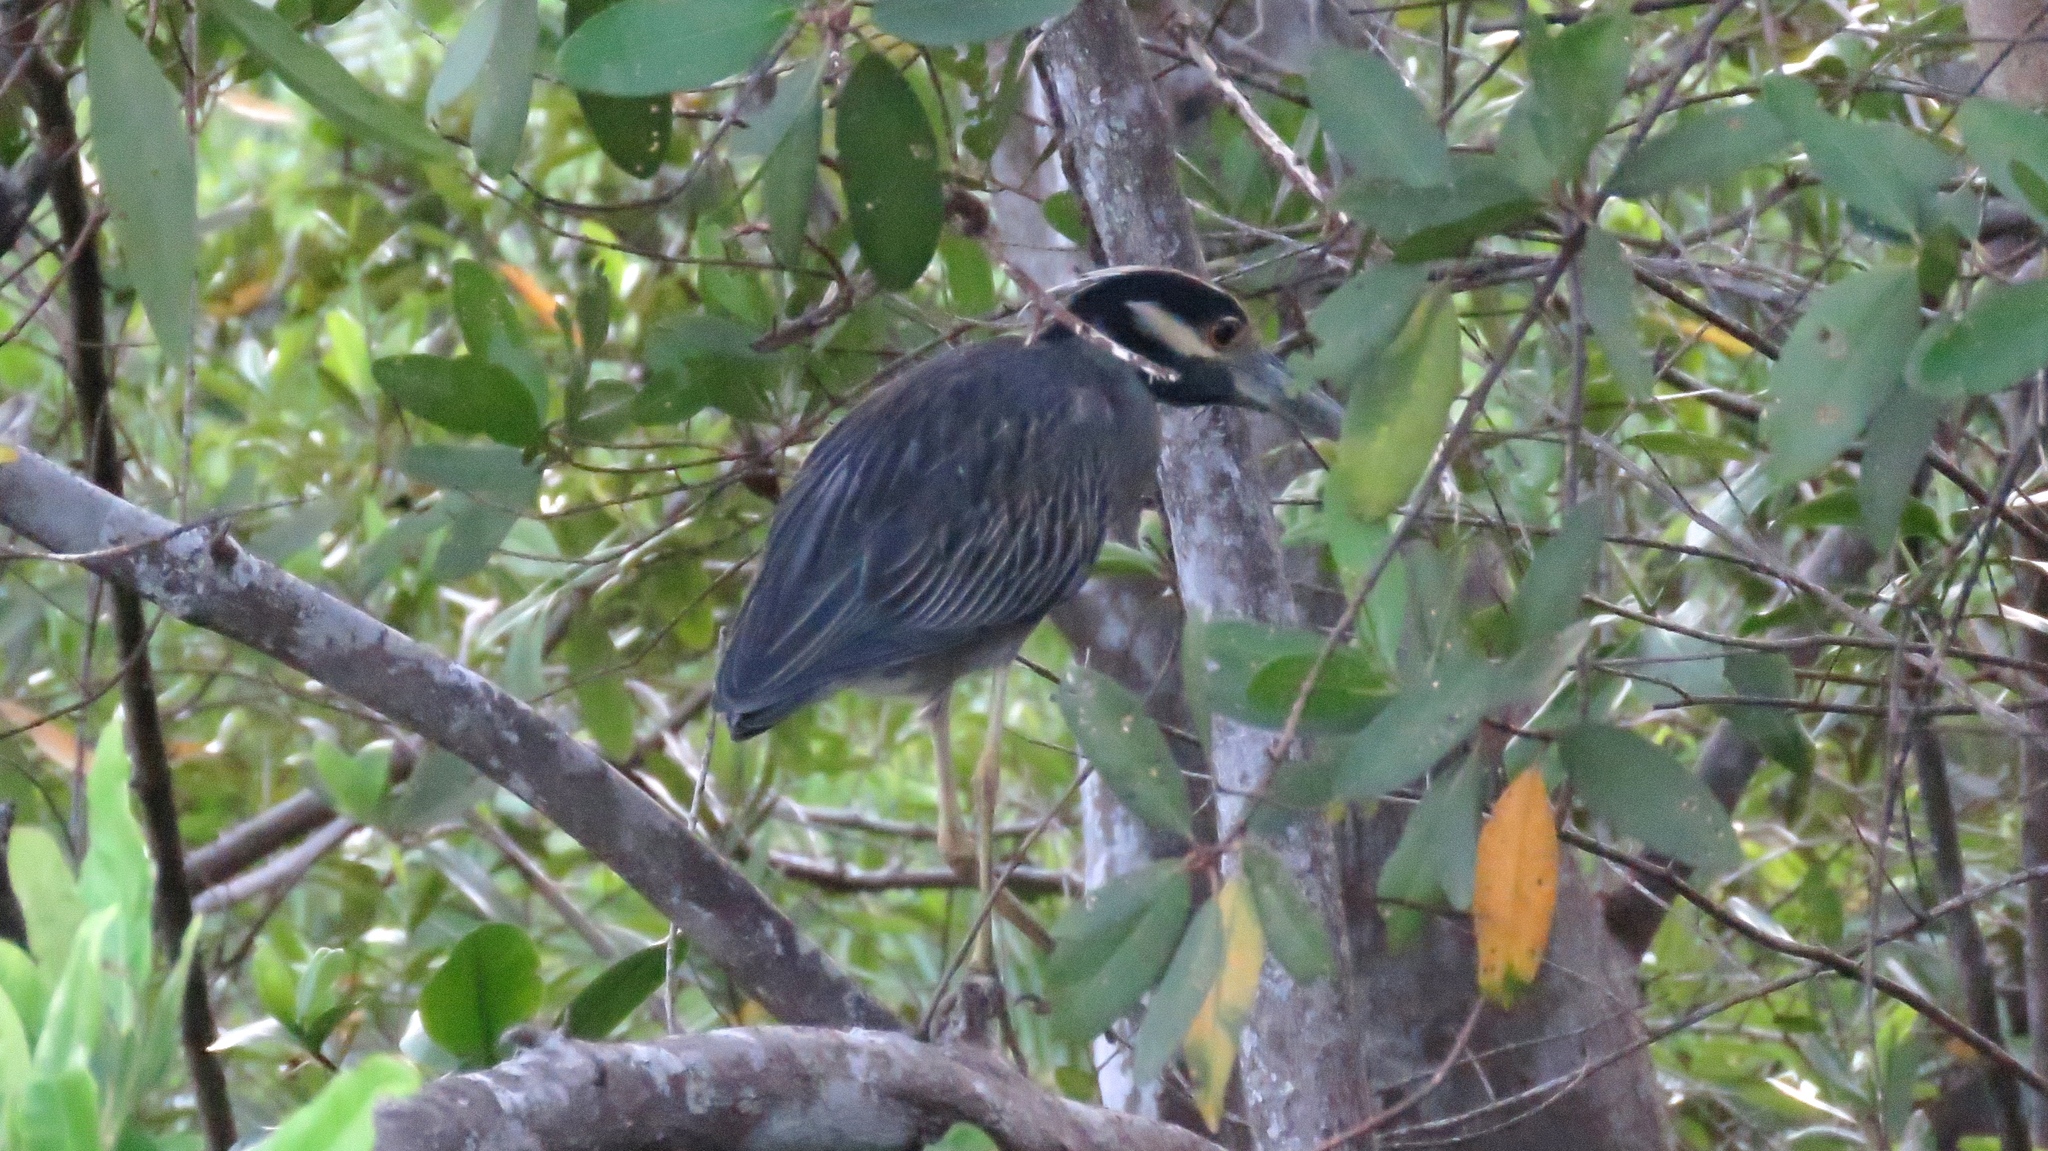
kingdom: Animalia
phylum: Chordata
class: Aves
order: Pelecaniformes
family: Ardeidae
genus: Nyctanassa
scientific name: Nyctanassa violacea
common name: Yellow-crowned night heron
